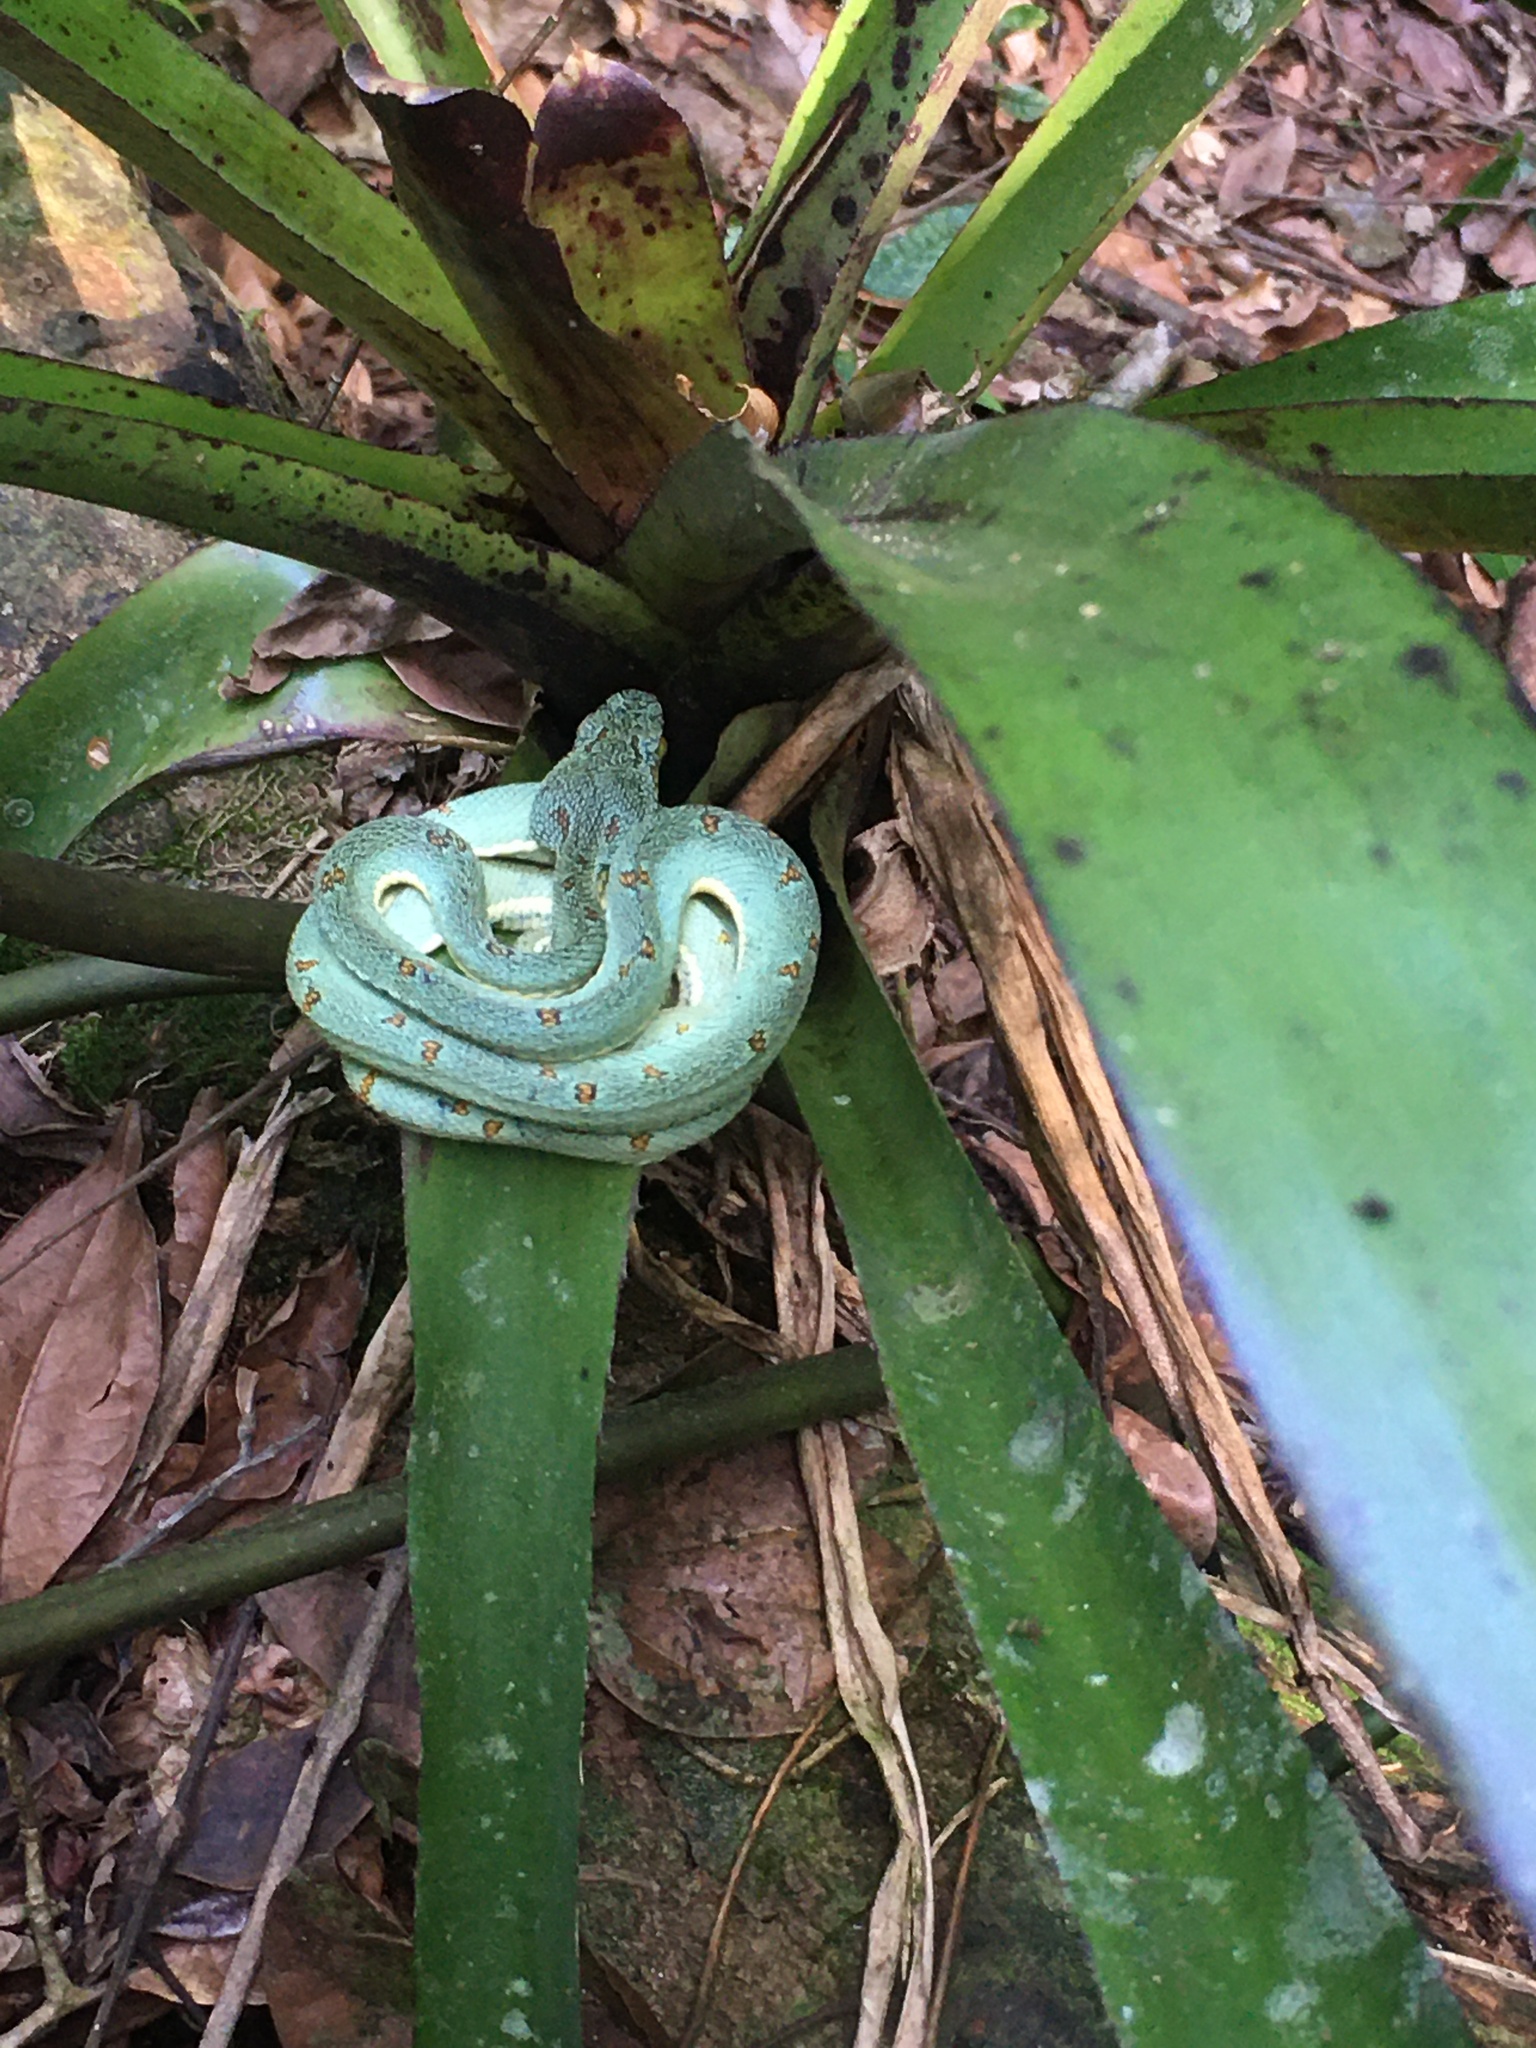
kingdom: Animalia
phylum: Chordata
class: Squamata
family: Viperidae
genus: Bothrops
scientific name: Bothrops bilineatus
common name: Green jararaca
